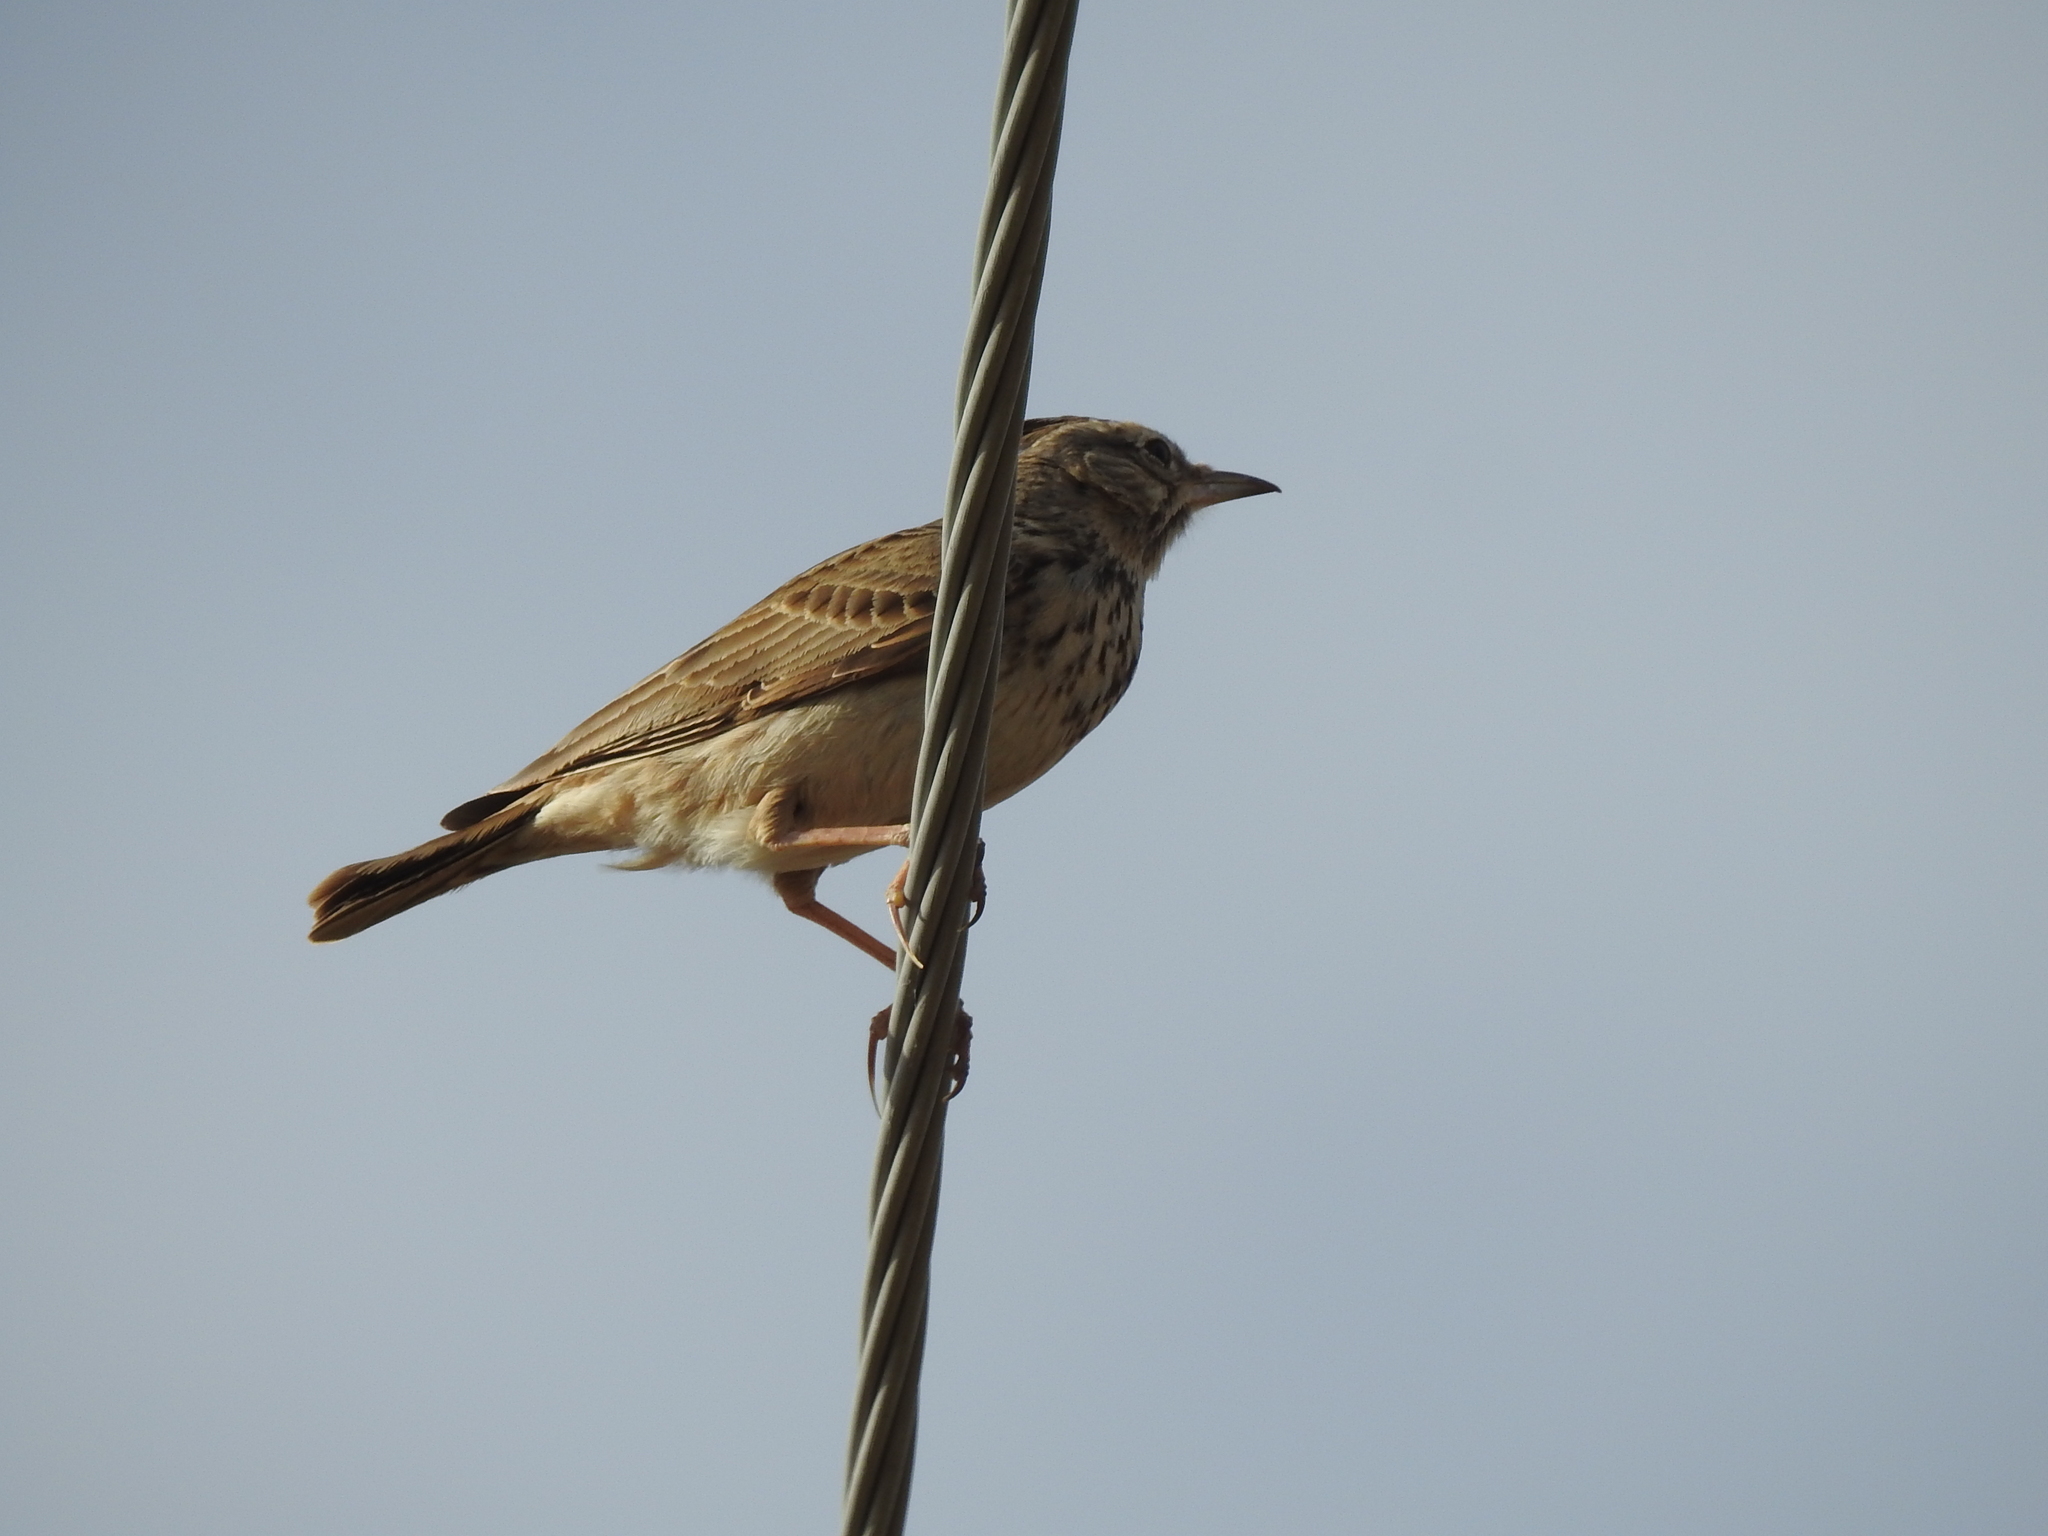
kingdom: Animalia
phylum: Chordata
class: Aves
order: Passeriformes
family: Alaudidae
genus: Galerida
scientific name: Galerida cristata
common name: Crested lark
